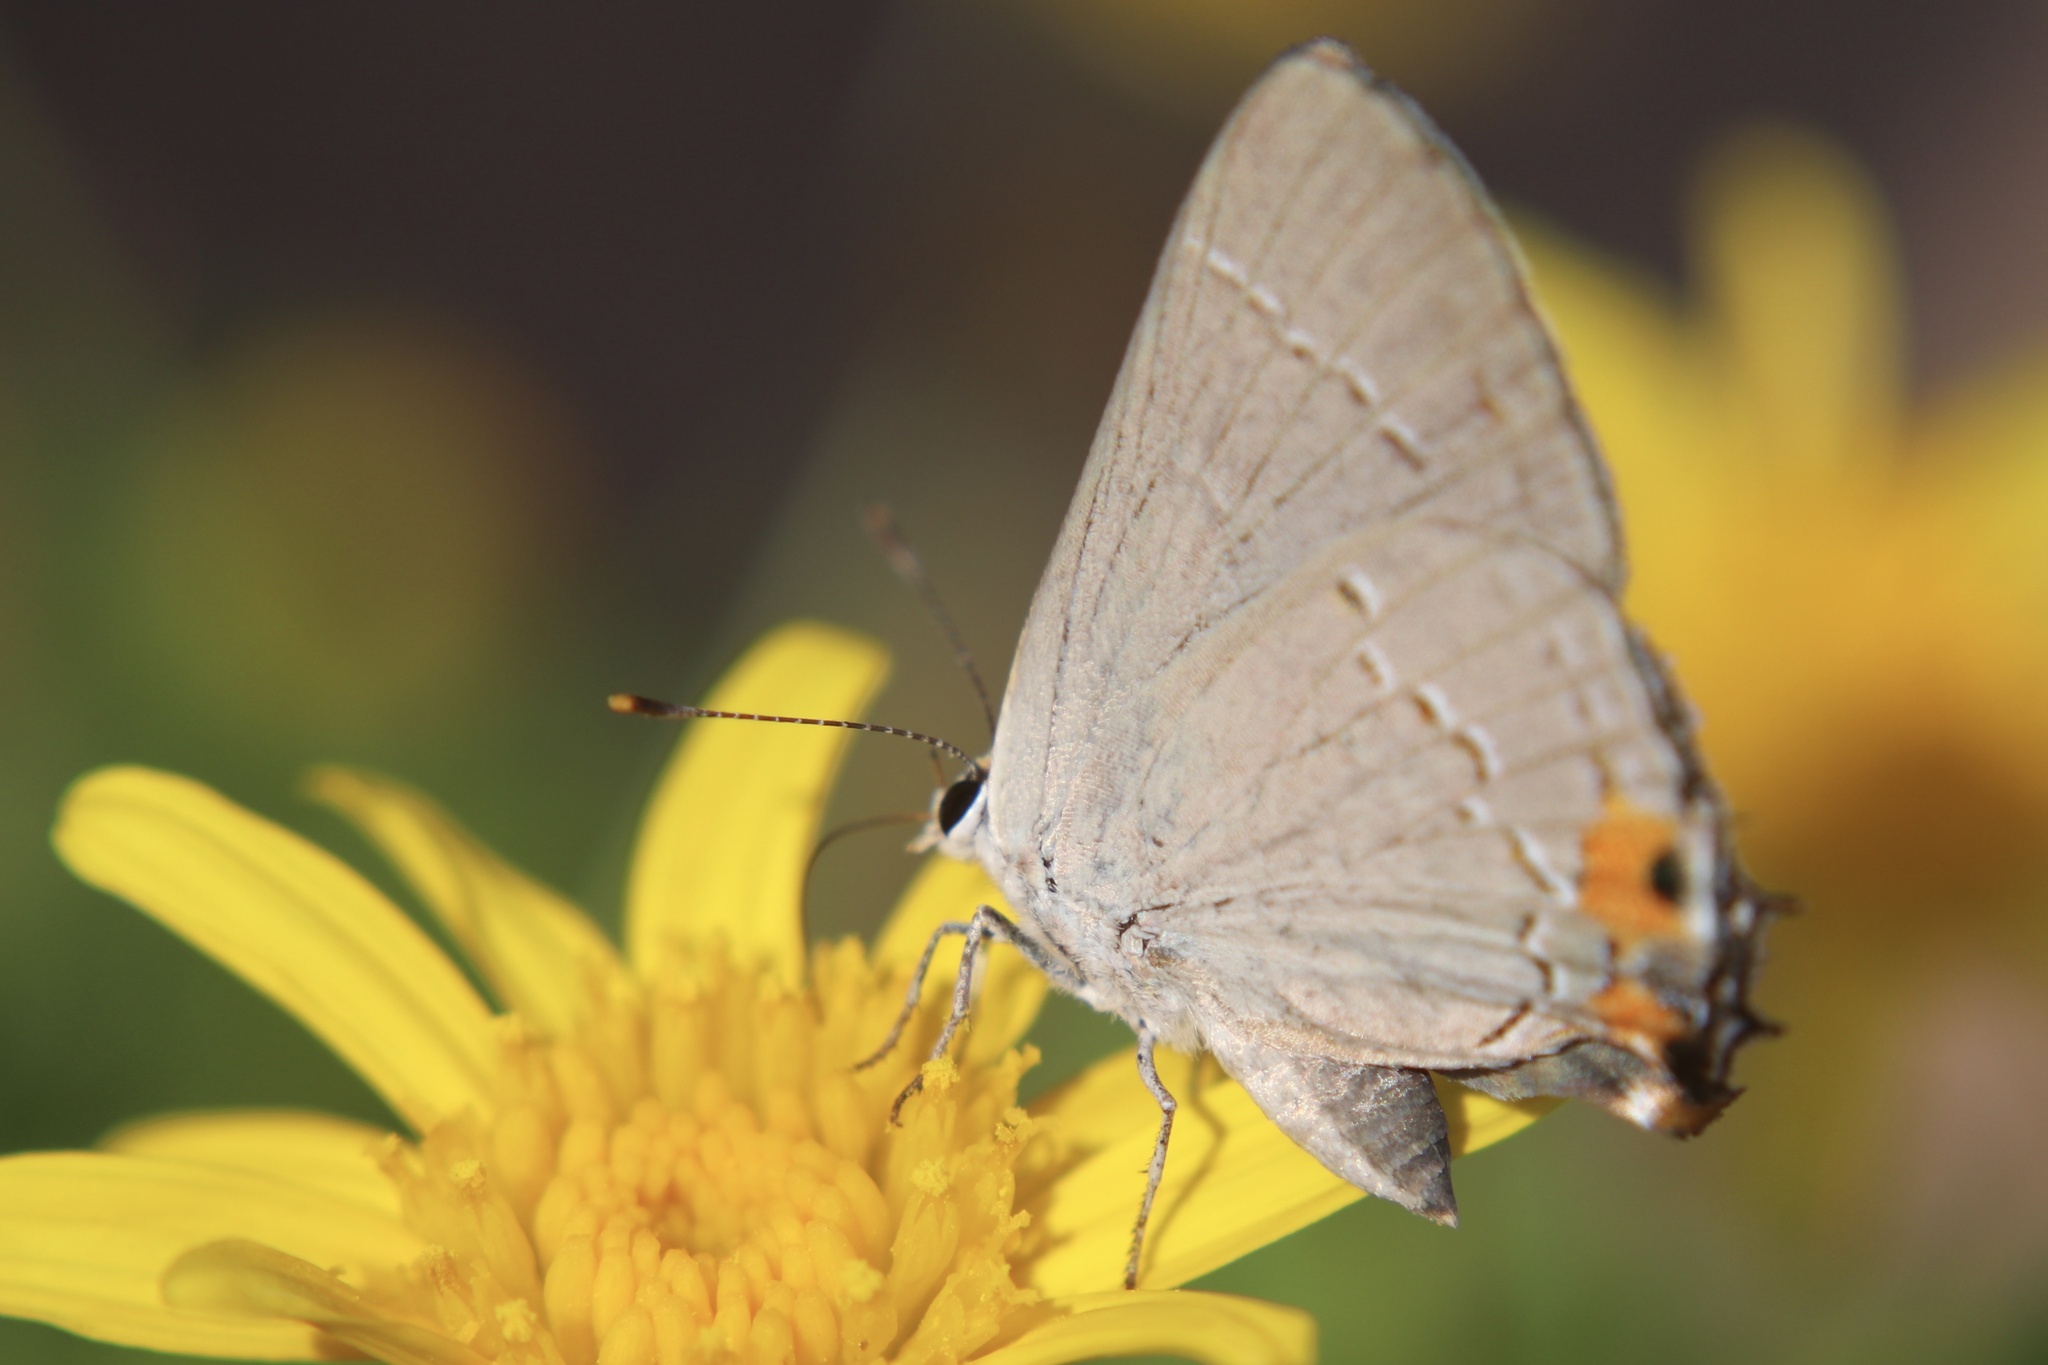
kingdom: Animalia
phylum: Arthropoda
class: Insecta
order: Lepidoptera
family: Lycaenidae
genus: Strymon
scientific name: Strymon melinus
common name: Gray hairstreak
